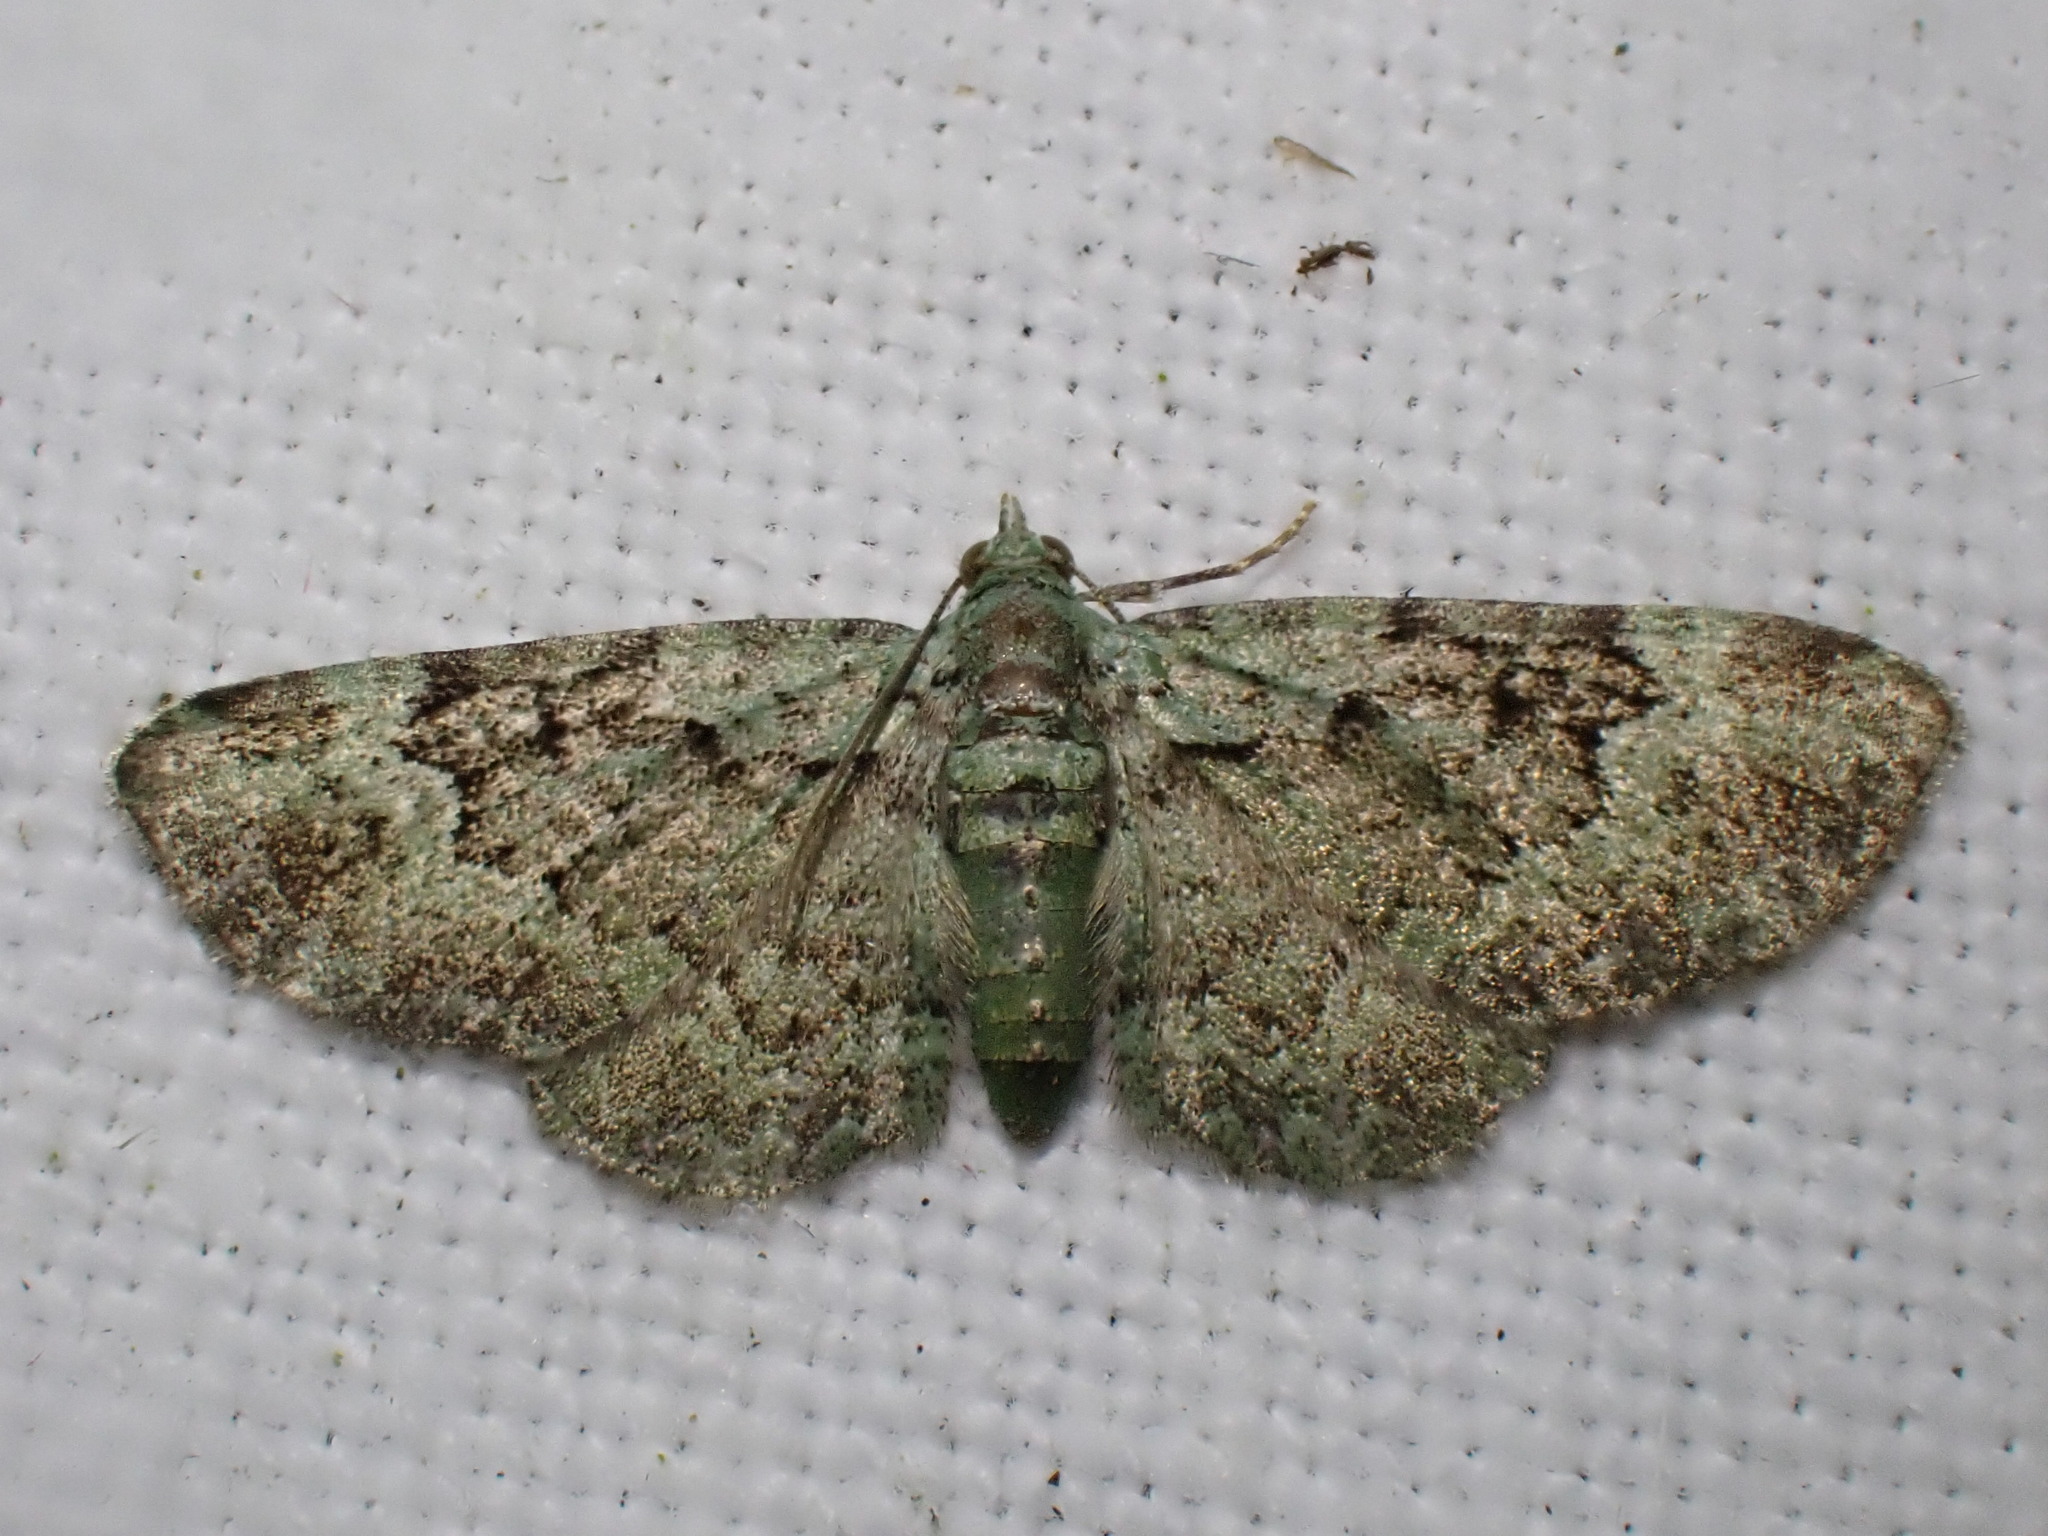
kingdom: Animalia
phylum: Arthropoda
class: Insecta
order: Lepidoptera
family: Geometridae
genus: Pasiphila
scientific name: Pasiphila rectangulata
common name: Green pug
